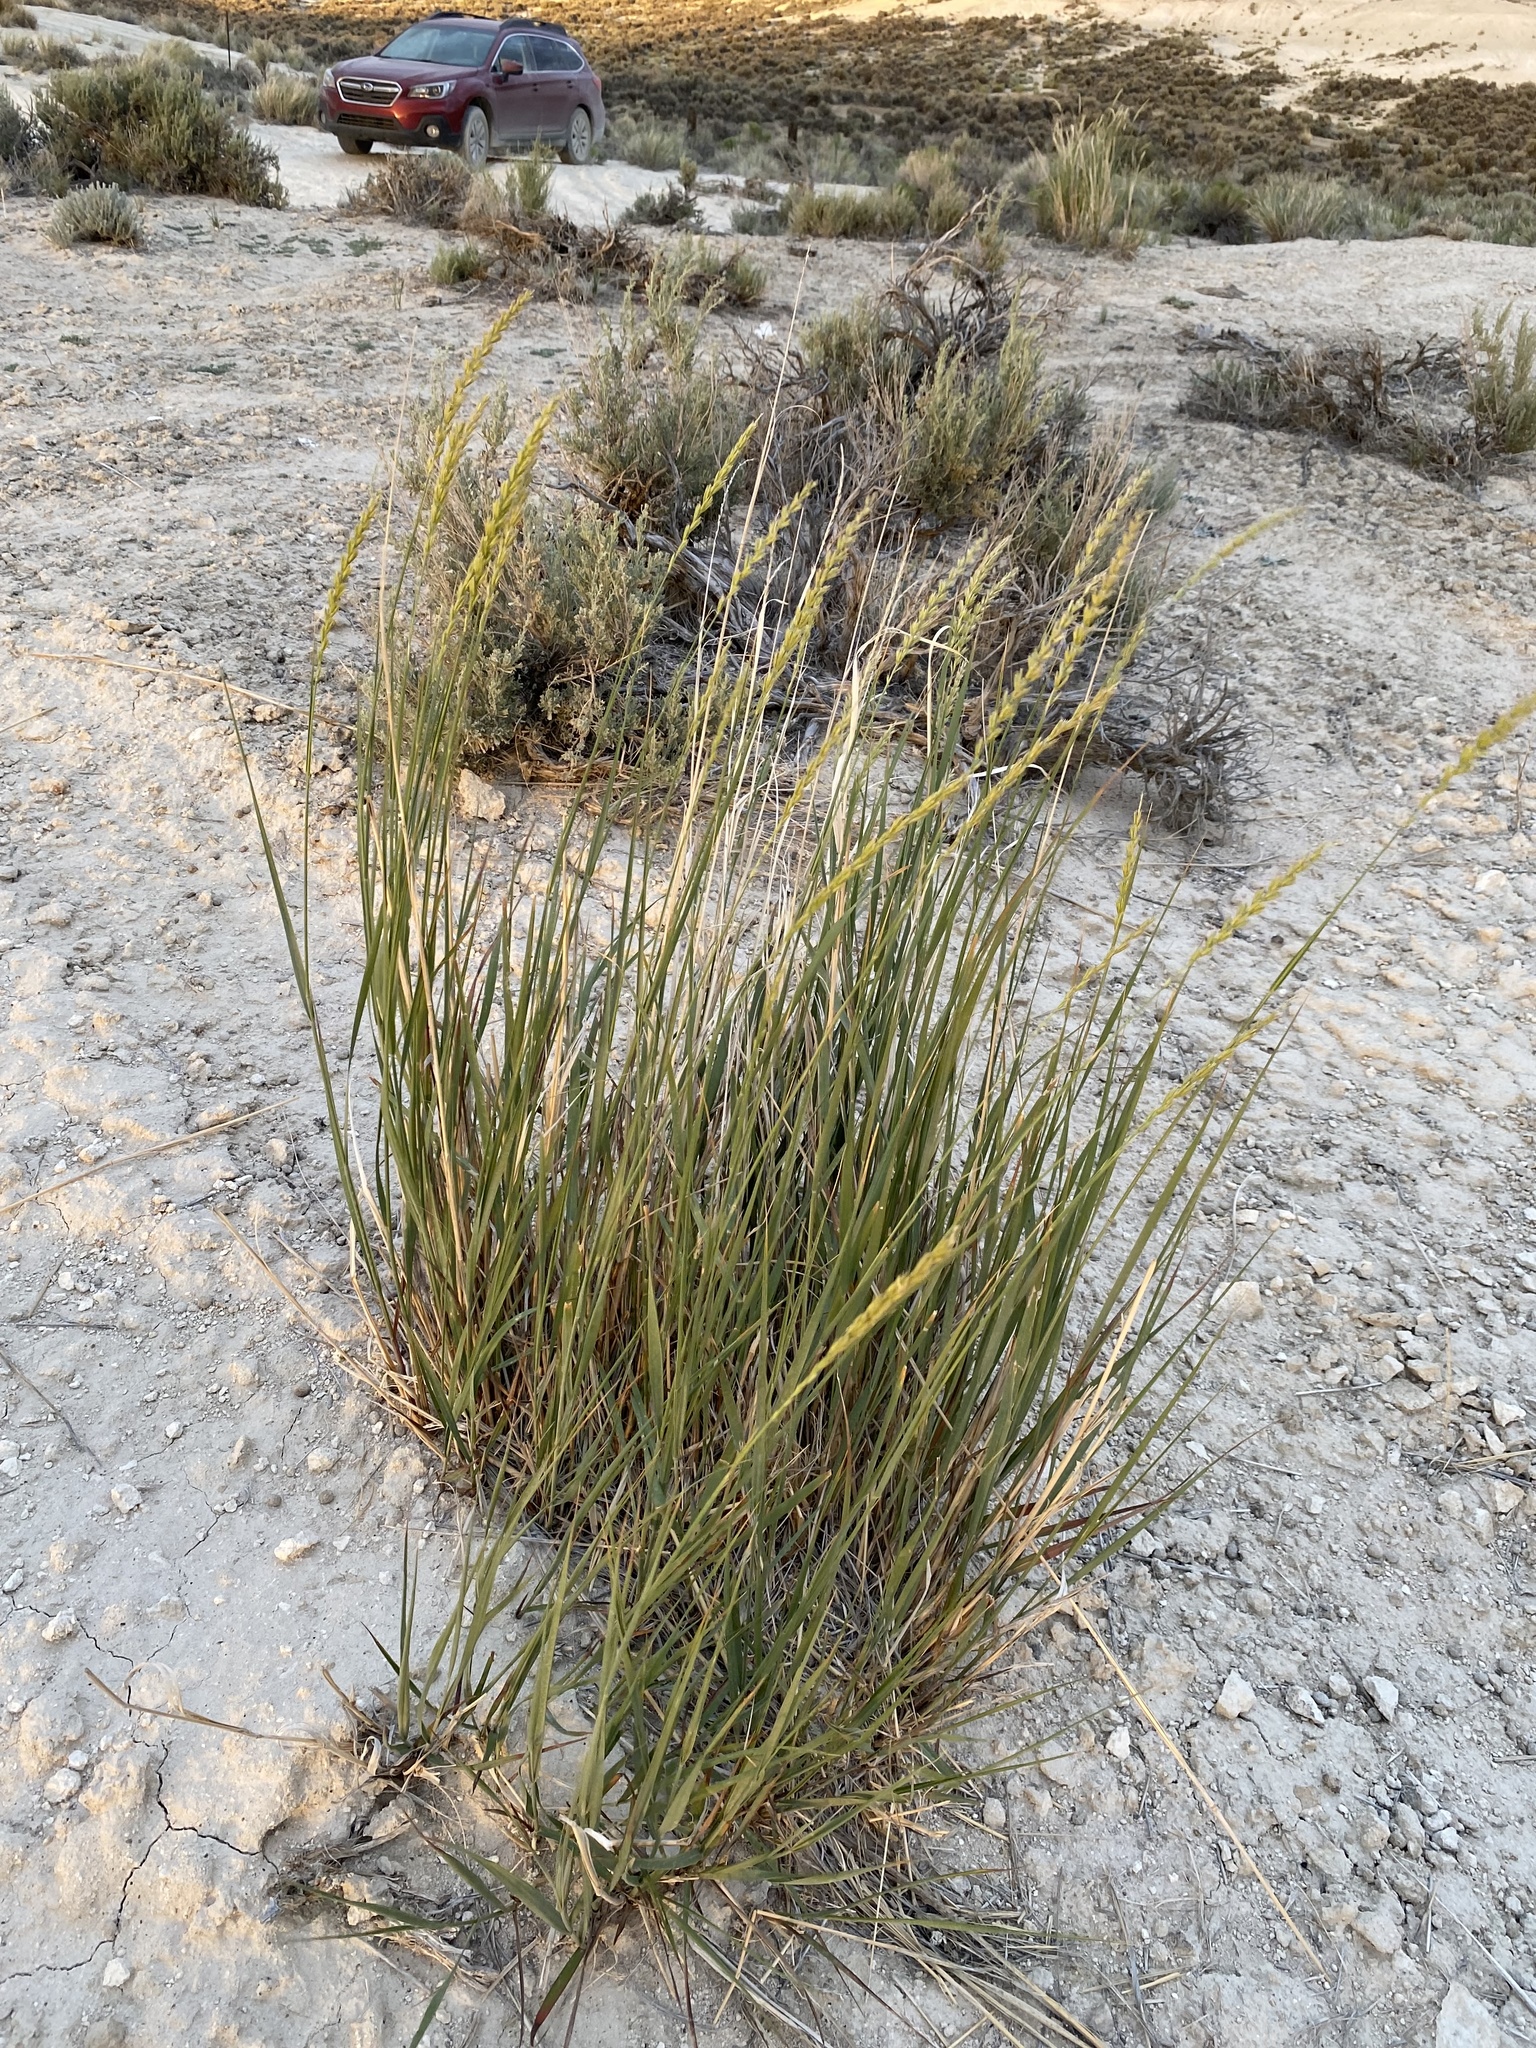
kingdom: Plantae
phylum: Tracheophyta
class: Liliopsida
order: Poales
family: Poaceae
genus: Leymus
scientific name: Leymus cinereus
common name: Basin wild rye
